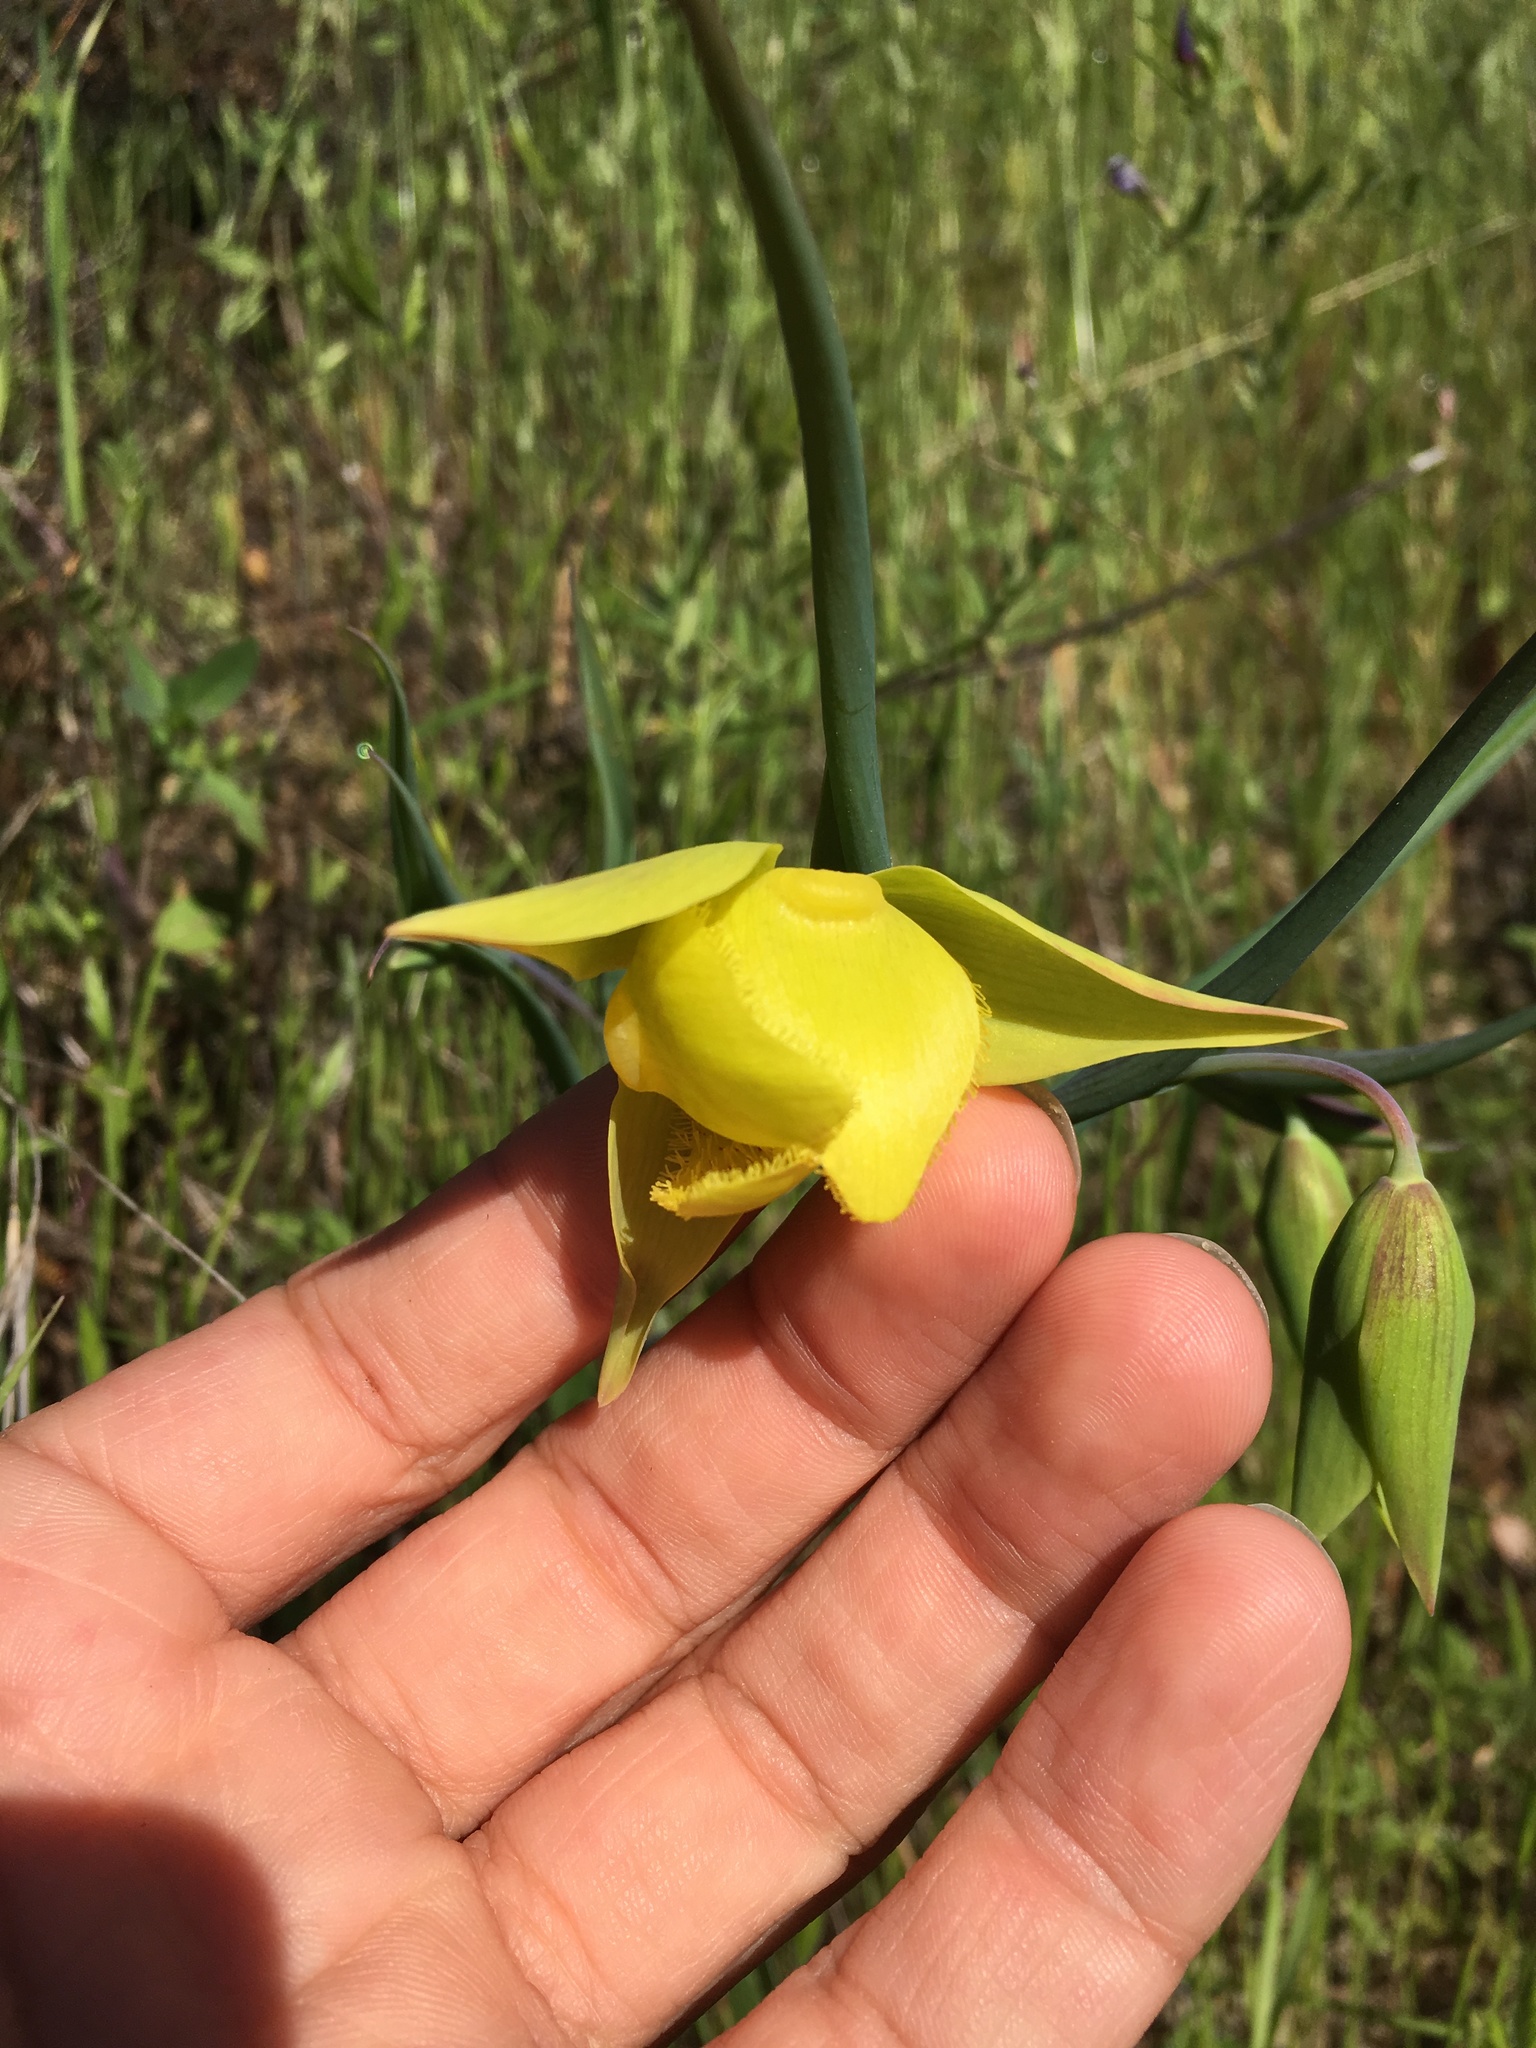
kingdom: Plantae
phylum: Tracheophyta
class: Liliopsida
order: Liliales
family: Liliaceae
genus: Calochortus
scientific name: Calochortus pulchellus
